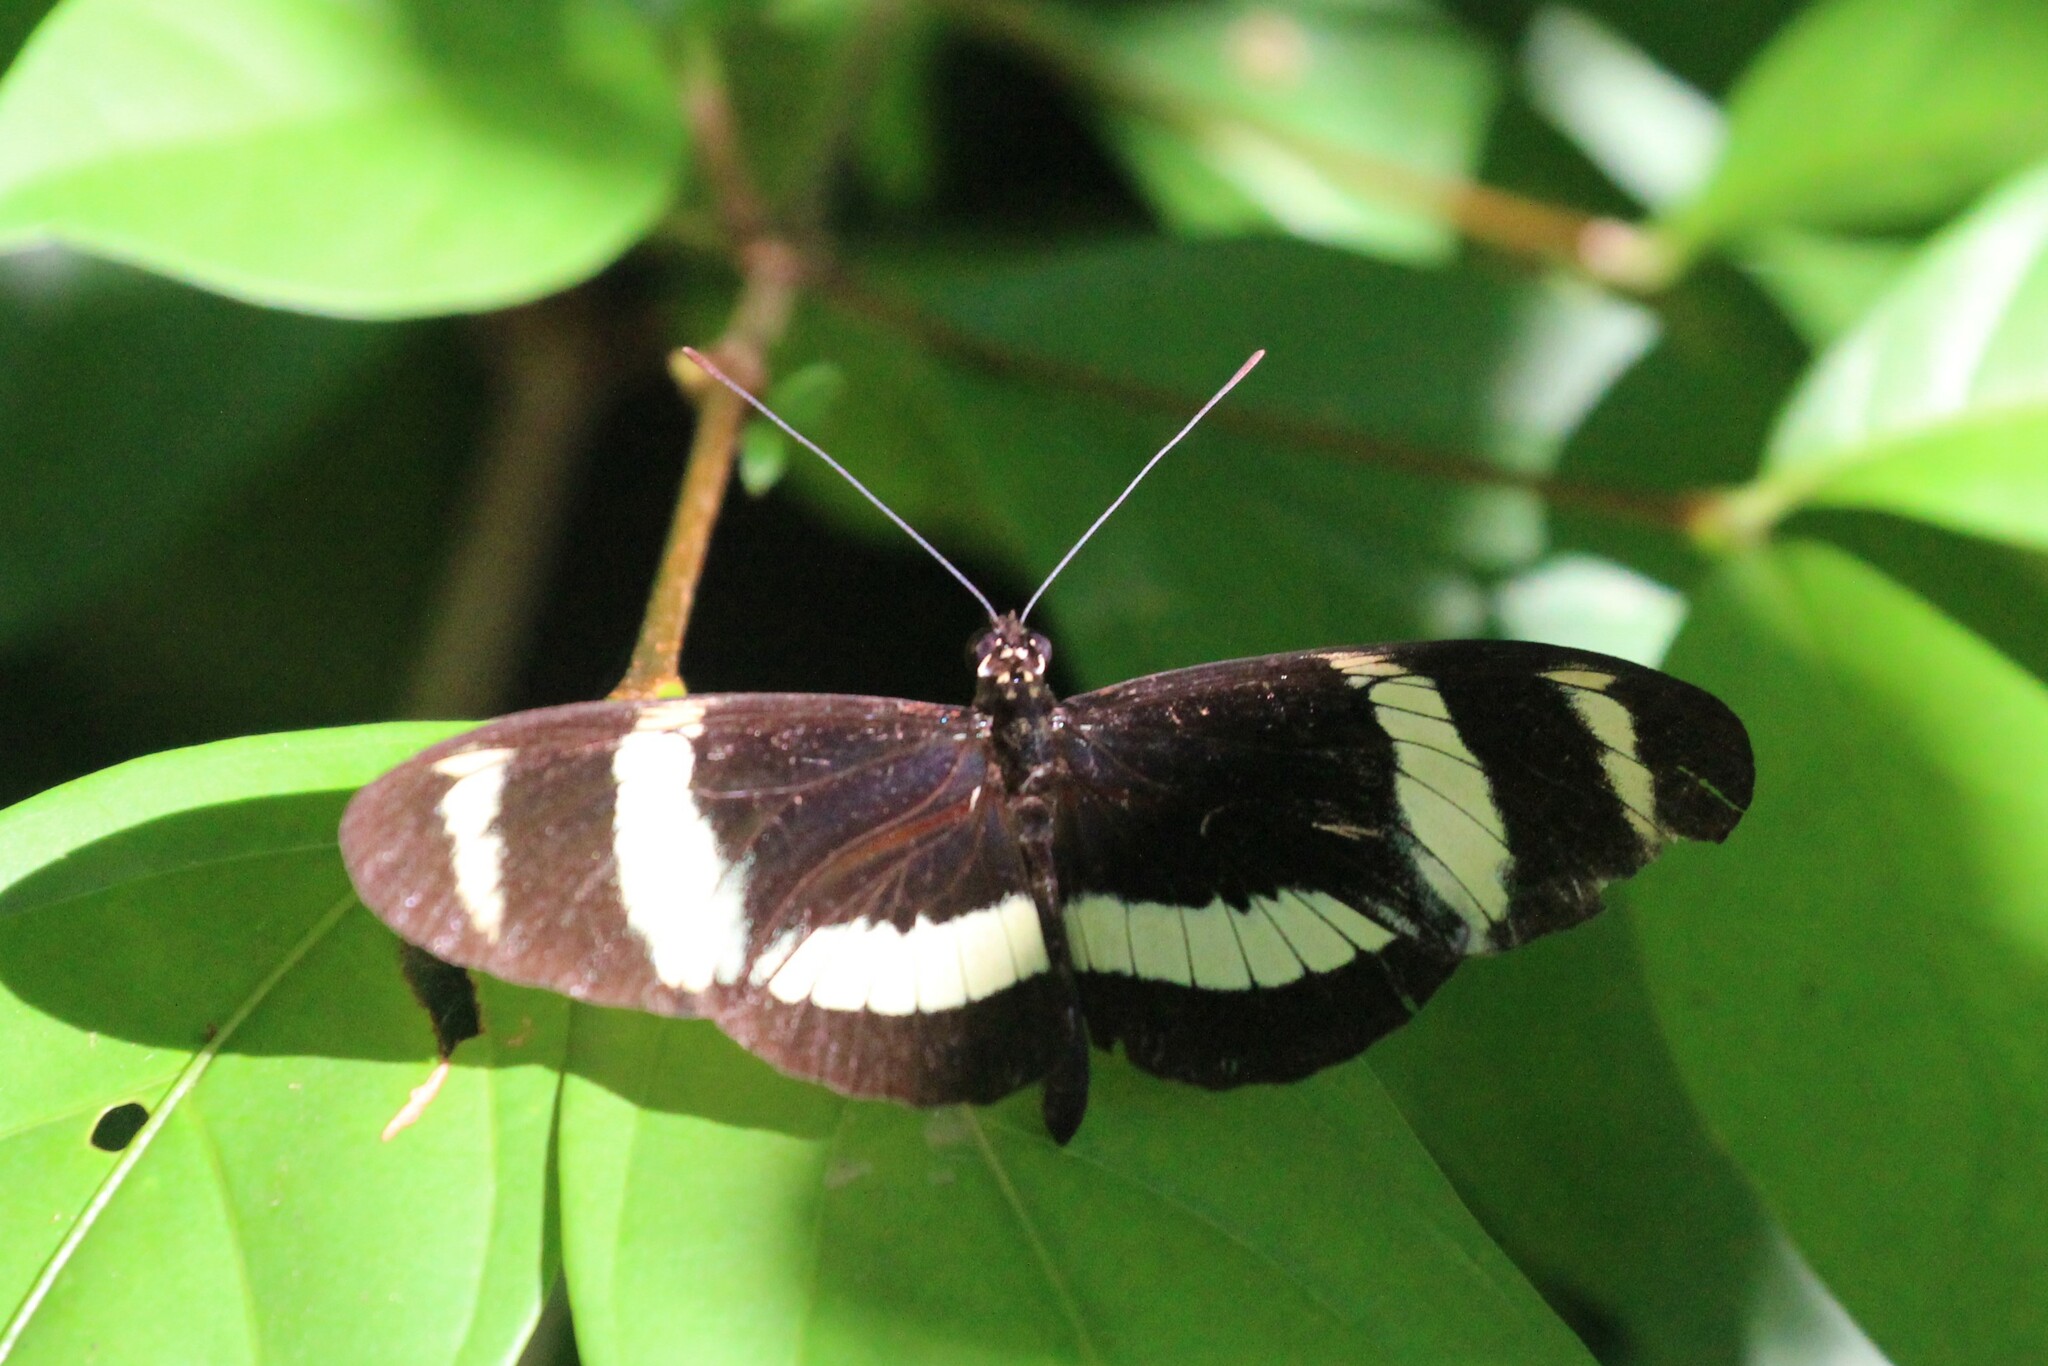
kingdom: Animalia
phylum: Arthropoda
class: Insecta
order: Lepidoptera
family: Nymphalidae
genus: Heliconius
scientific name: Heliconius pachinus
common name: Pachinus longwing
